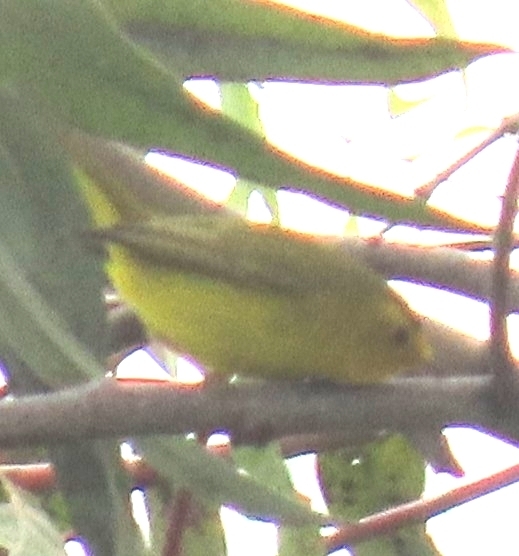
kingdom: Animalia
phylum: Chordata
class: Aves
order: Passeriformes
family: Parulidae
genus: Cardellina
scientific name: Cardellina pusilla
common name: Wilson's warbler
